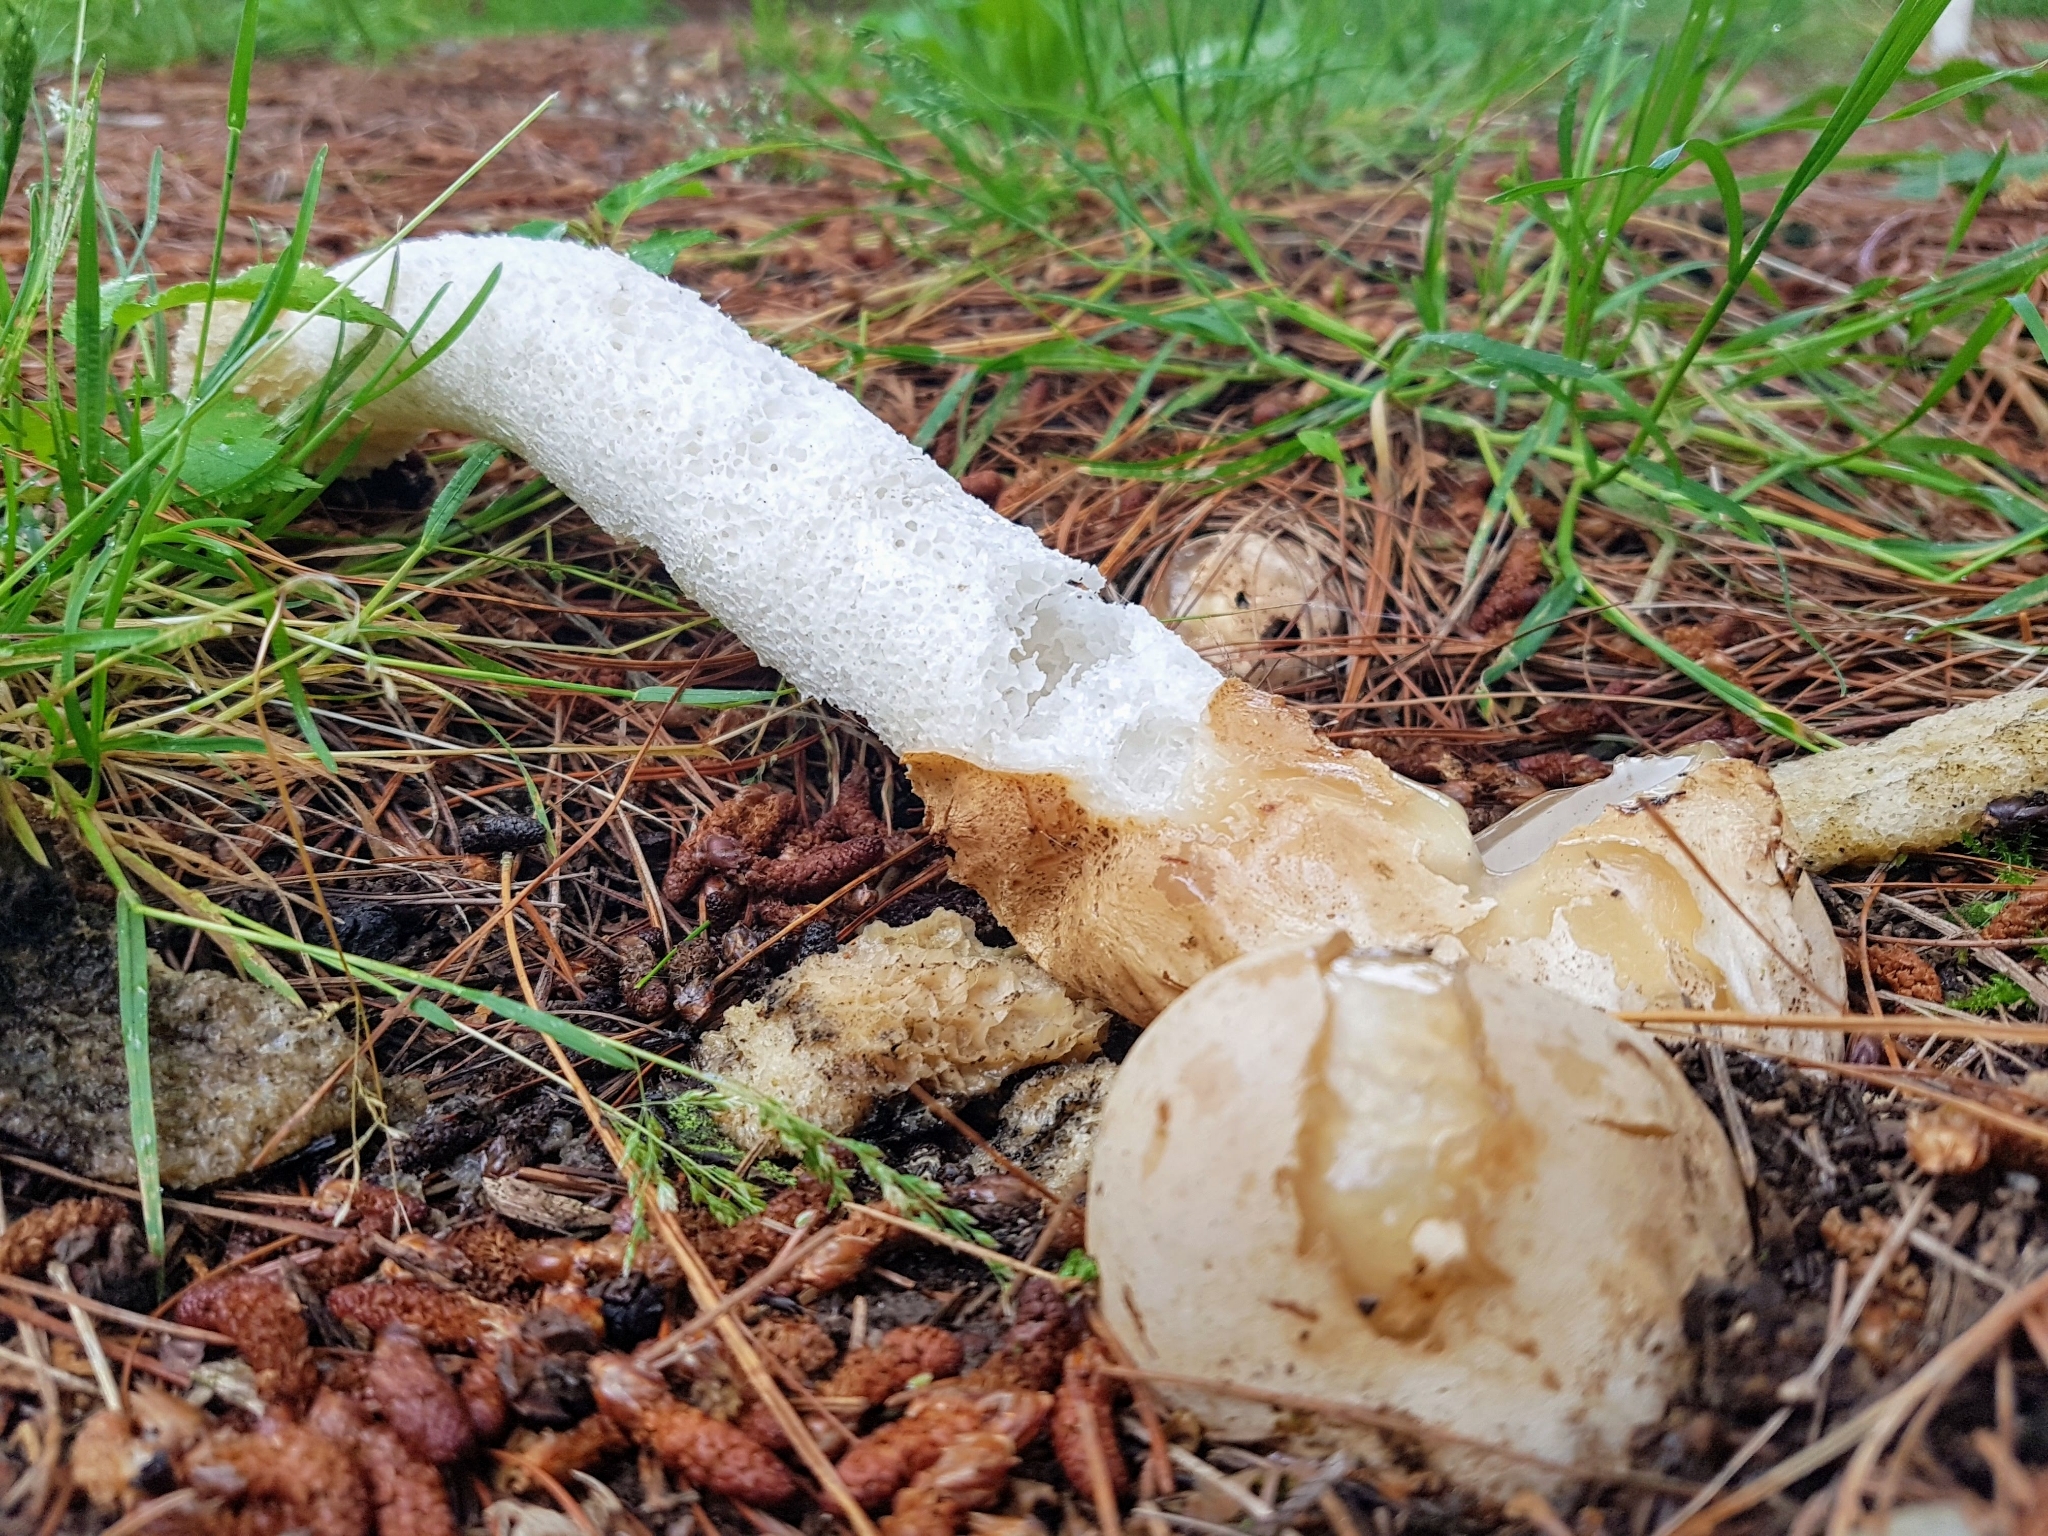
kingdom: Fungi
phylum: Basidiomycota
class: Agaricomycetes
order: Phallales
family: Phallaceae
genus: Phallus
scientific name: Phallus impudicus
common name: Common stinkhorn
